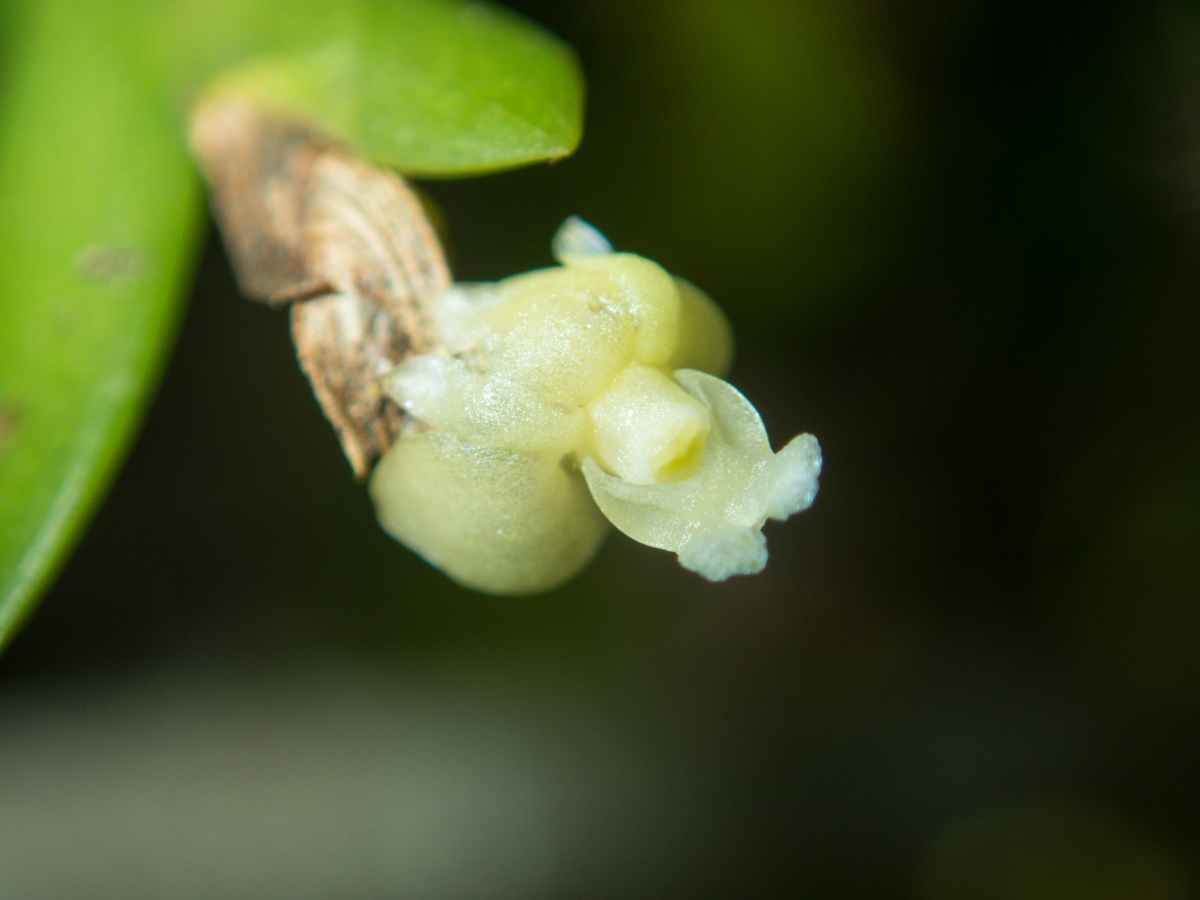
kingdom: Plantae
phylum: Tracheophyta
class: Liliopsida
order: Asparagales
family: Orchidaceae
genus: Dendrobium
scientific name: Dendrobium aloifolium
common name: Aloe-like dendrobium
